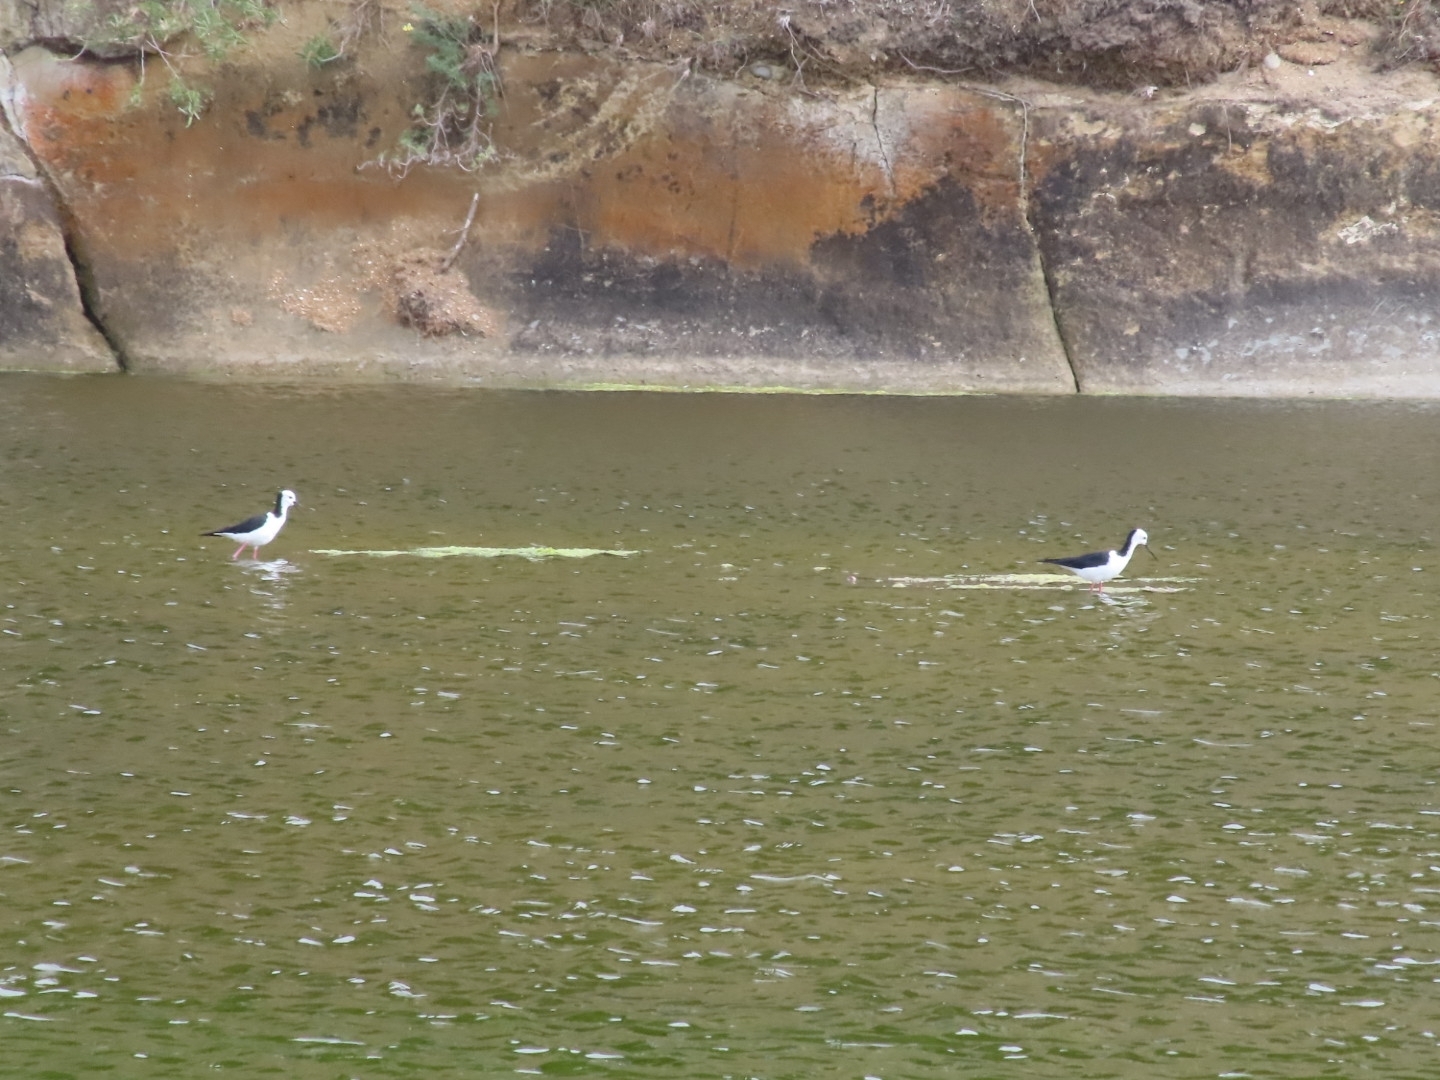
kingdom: Animalia
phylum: Chordata
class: Aves
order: Charadriiformes
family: Recurvirostridae
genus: Himantopus
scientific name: Himantopus leucocephalus
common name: White-headed stilt
